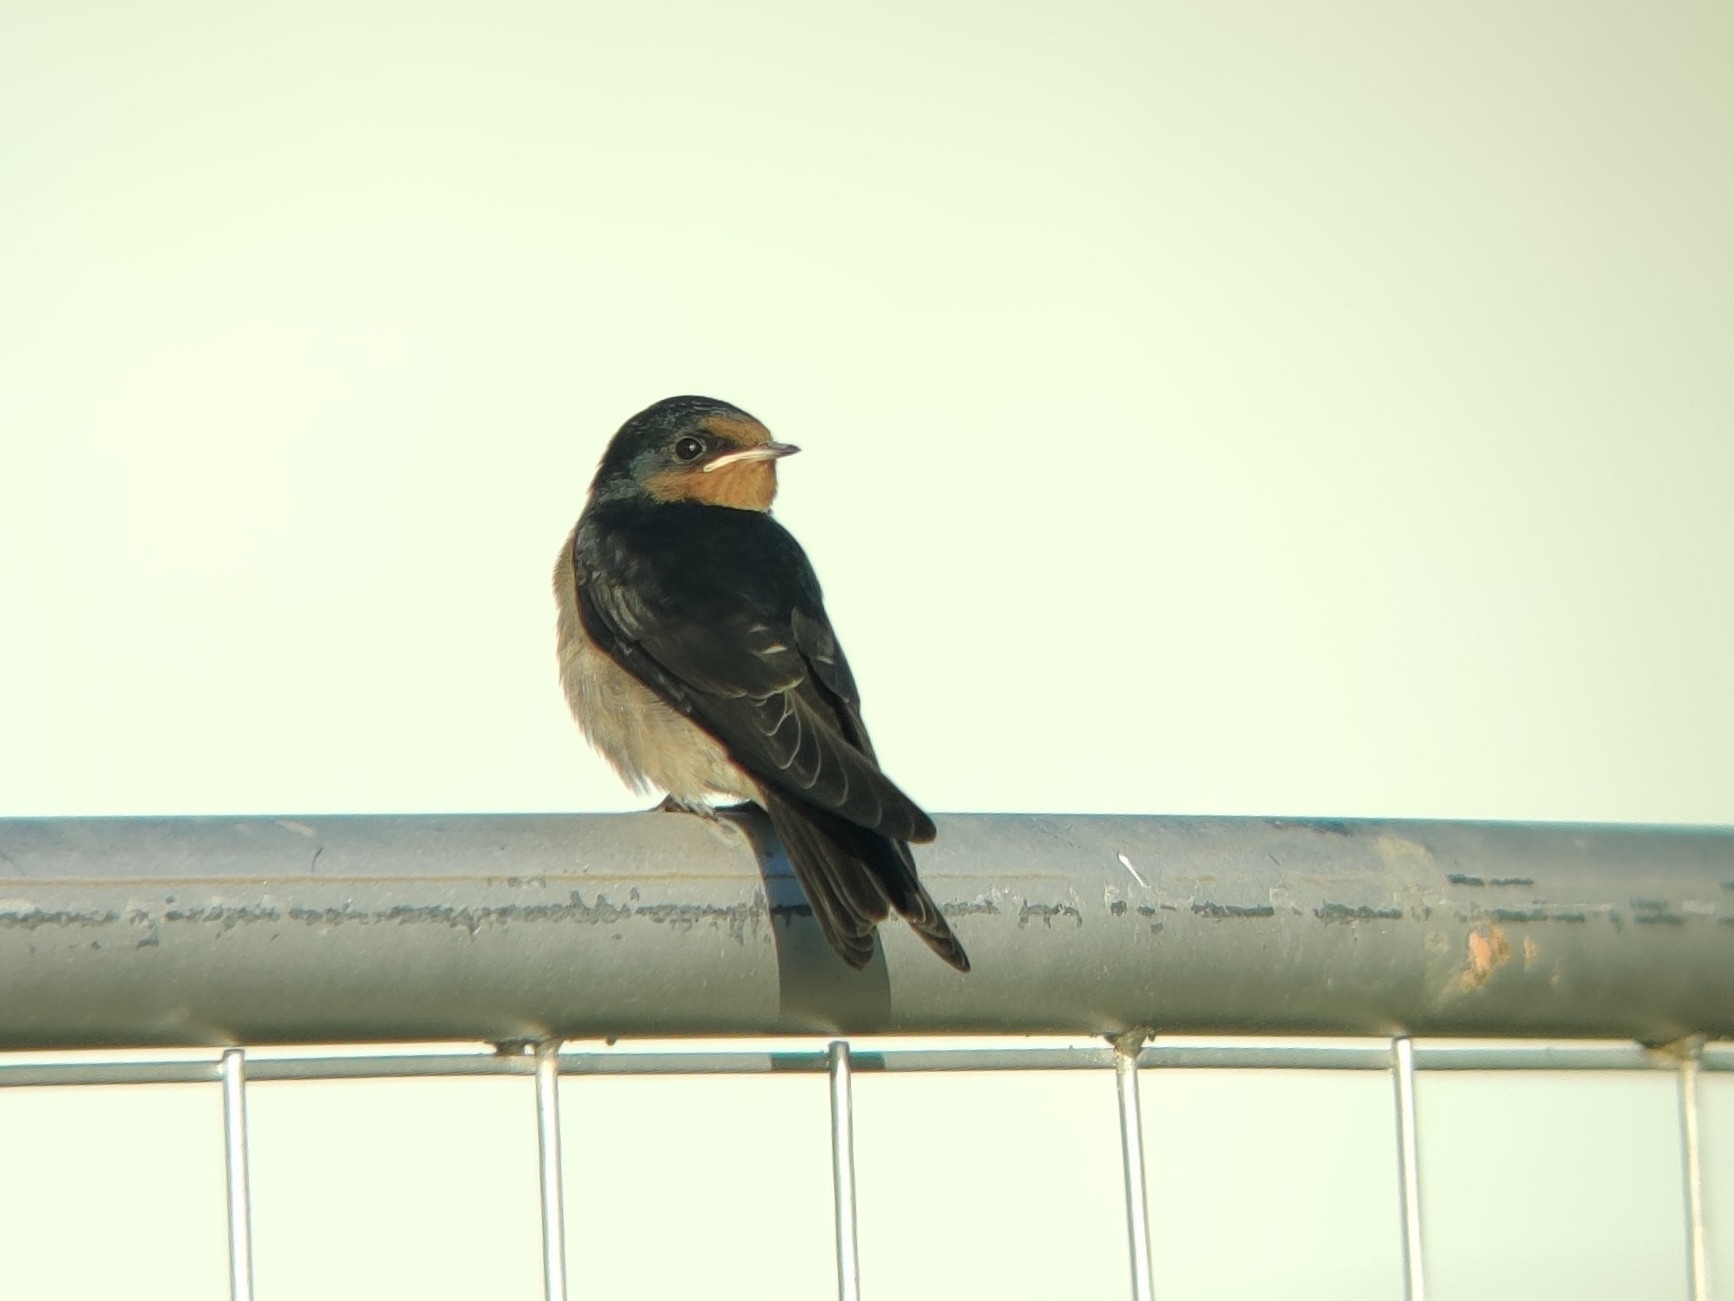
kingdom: Animalia
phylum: Chordata
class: Aves
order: Passeriformes
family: Hirundinidae
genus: Hirundo
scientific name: Hirundo neoxena
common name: Welcome swallow
